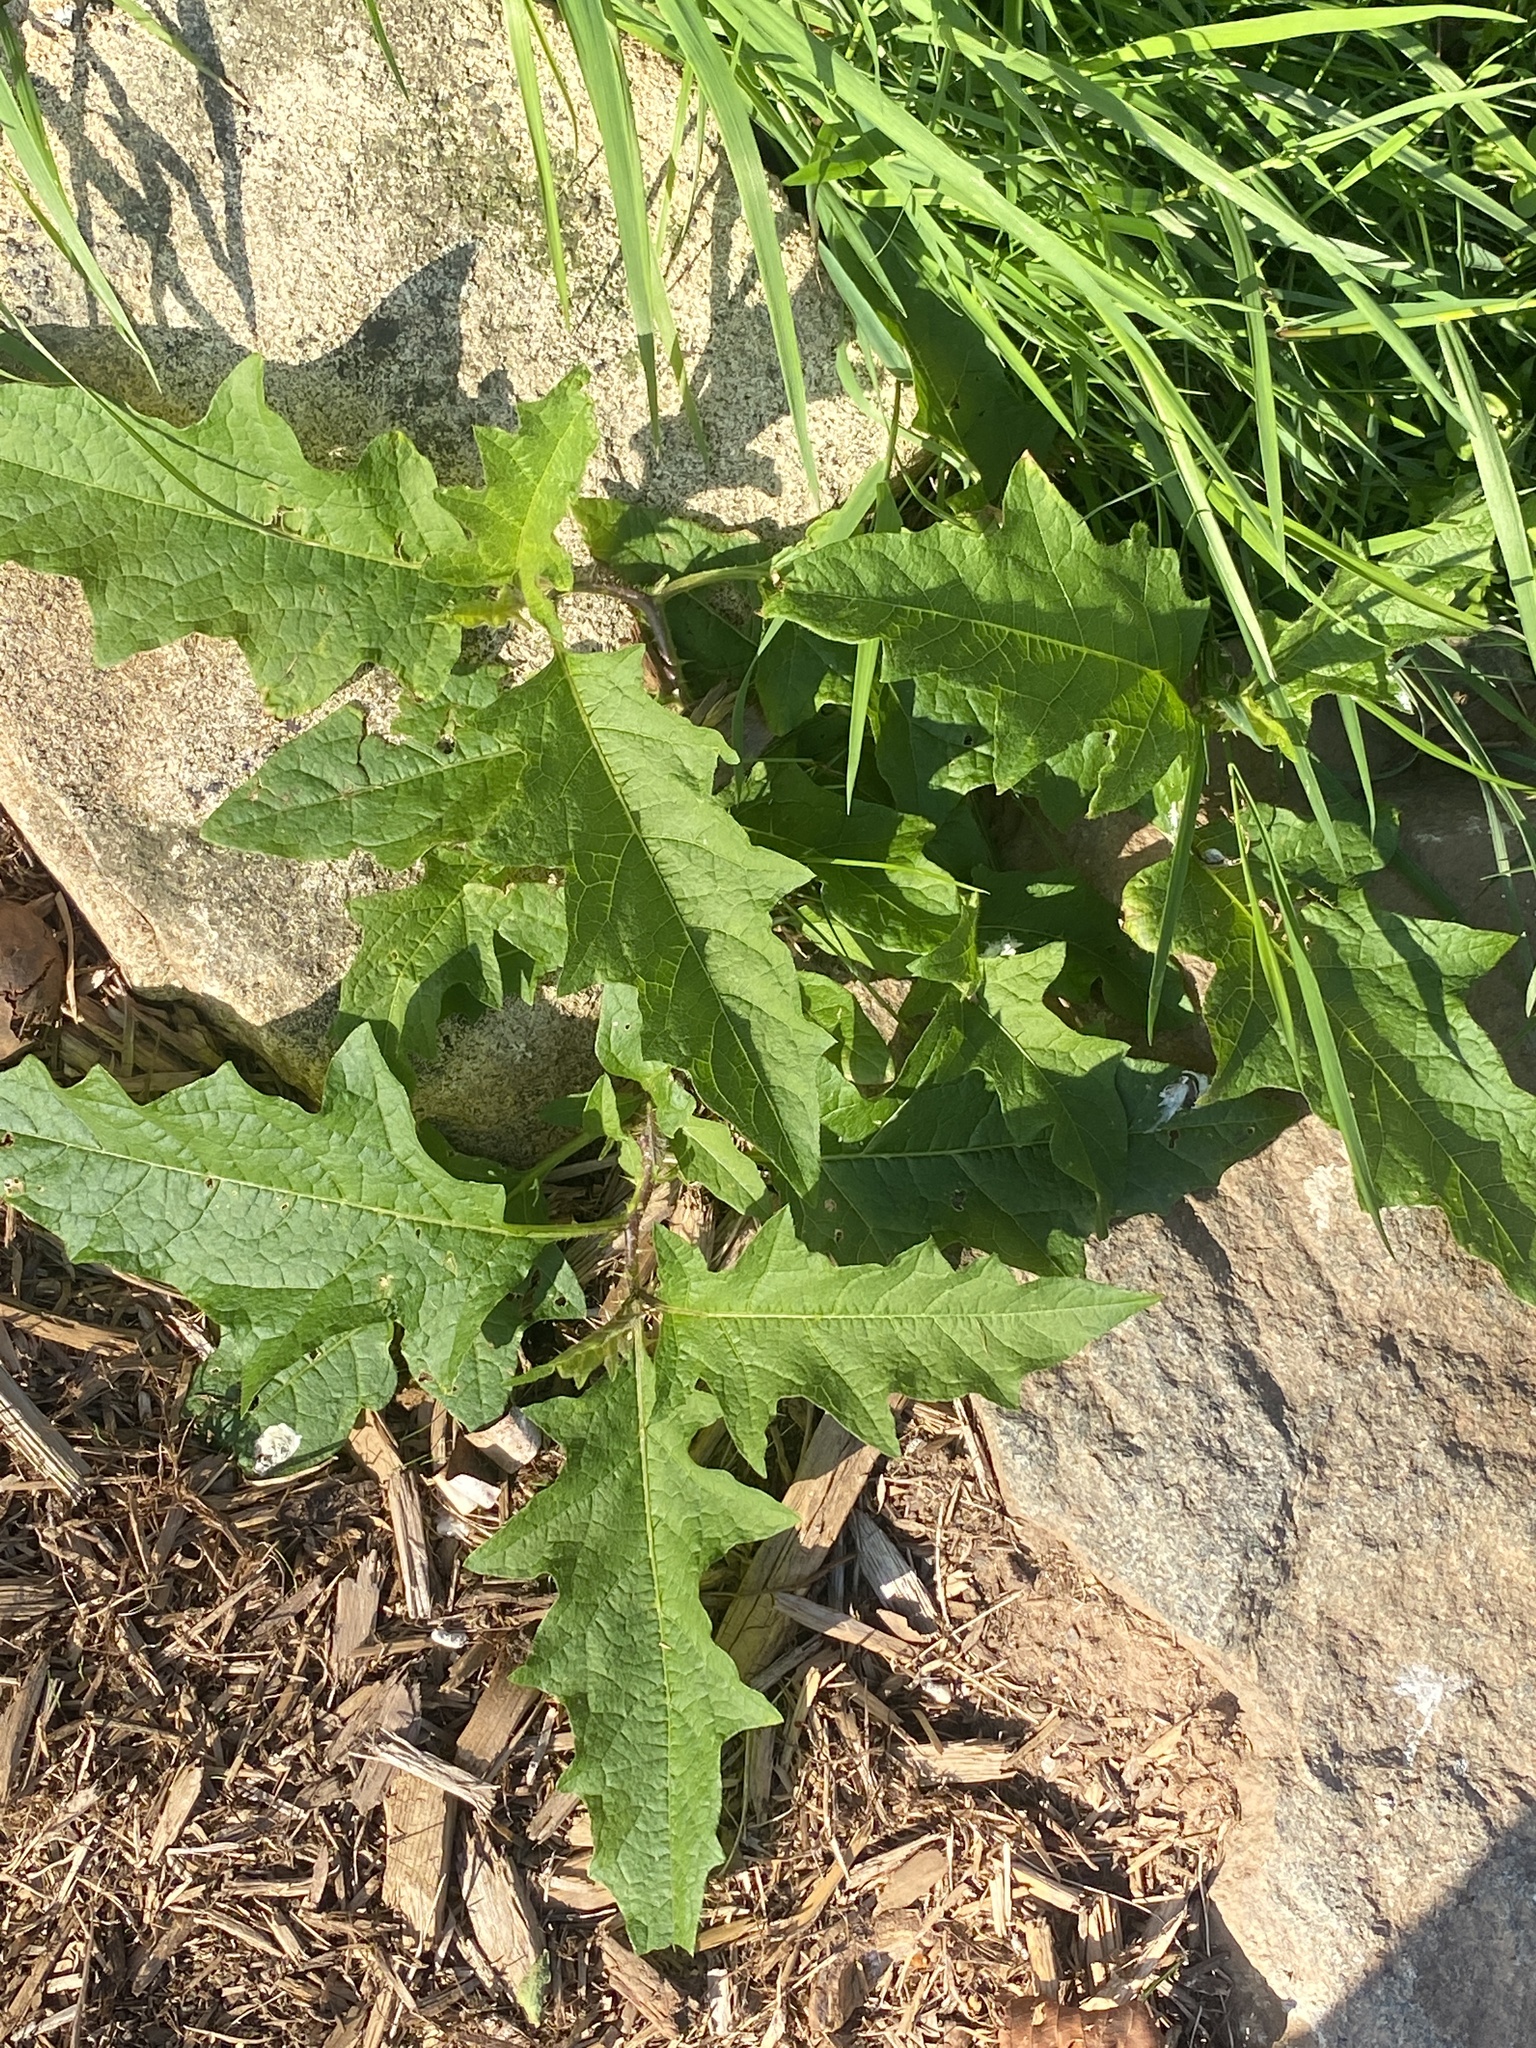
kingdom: Plantae
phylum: Tracheophyta
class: Magnoliopsida
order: Solanales
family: Solanaceae
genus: Solanum
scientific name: Solanum carolinense
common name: Horse-nettle
